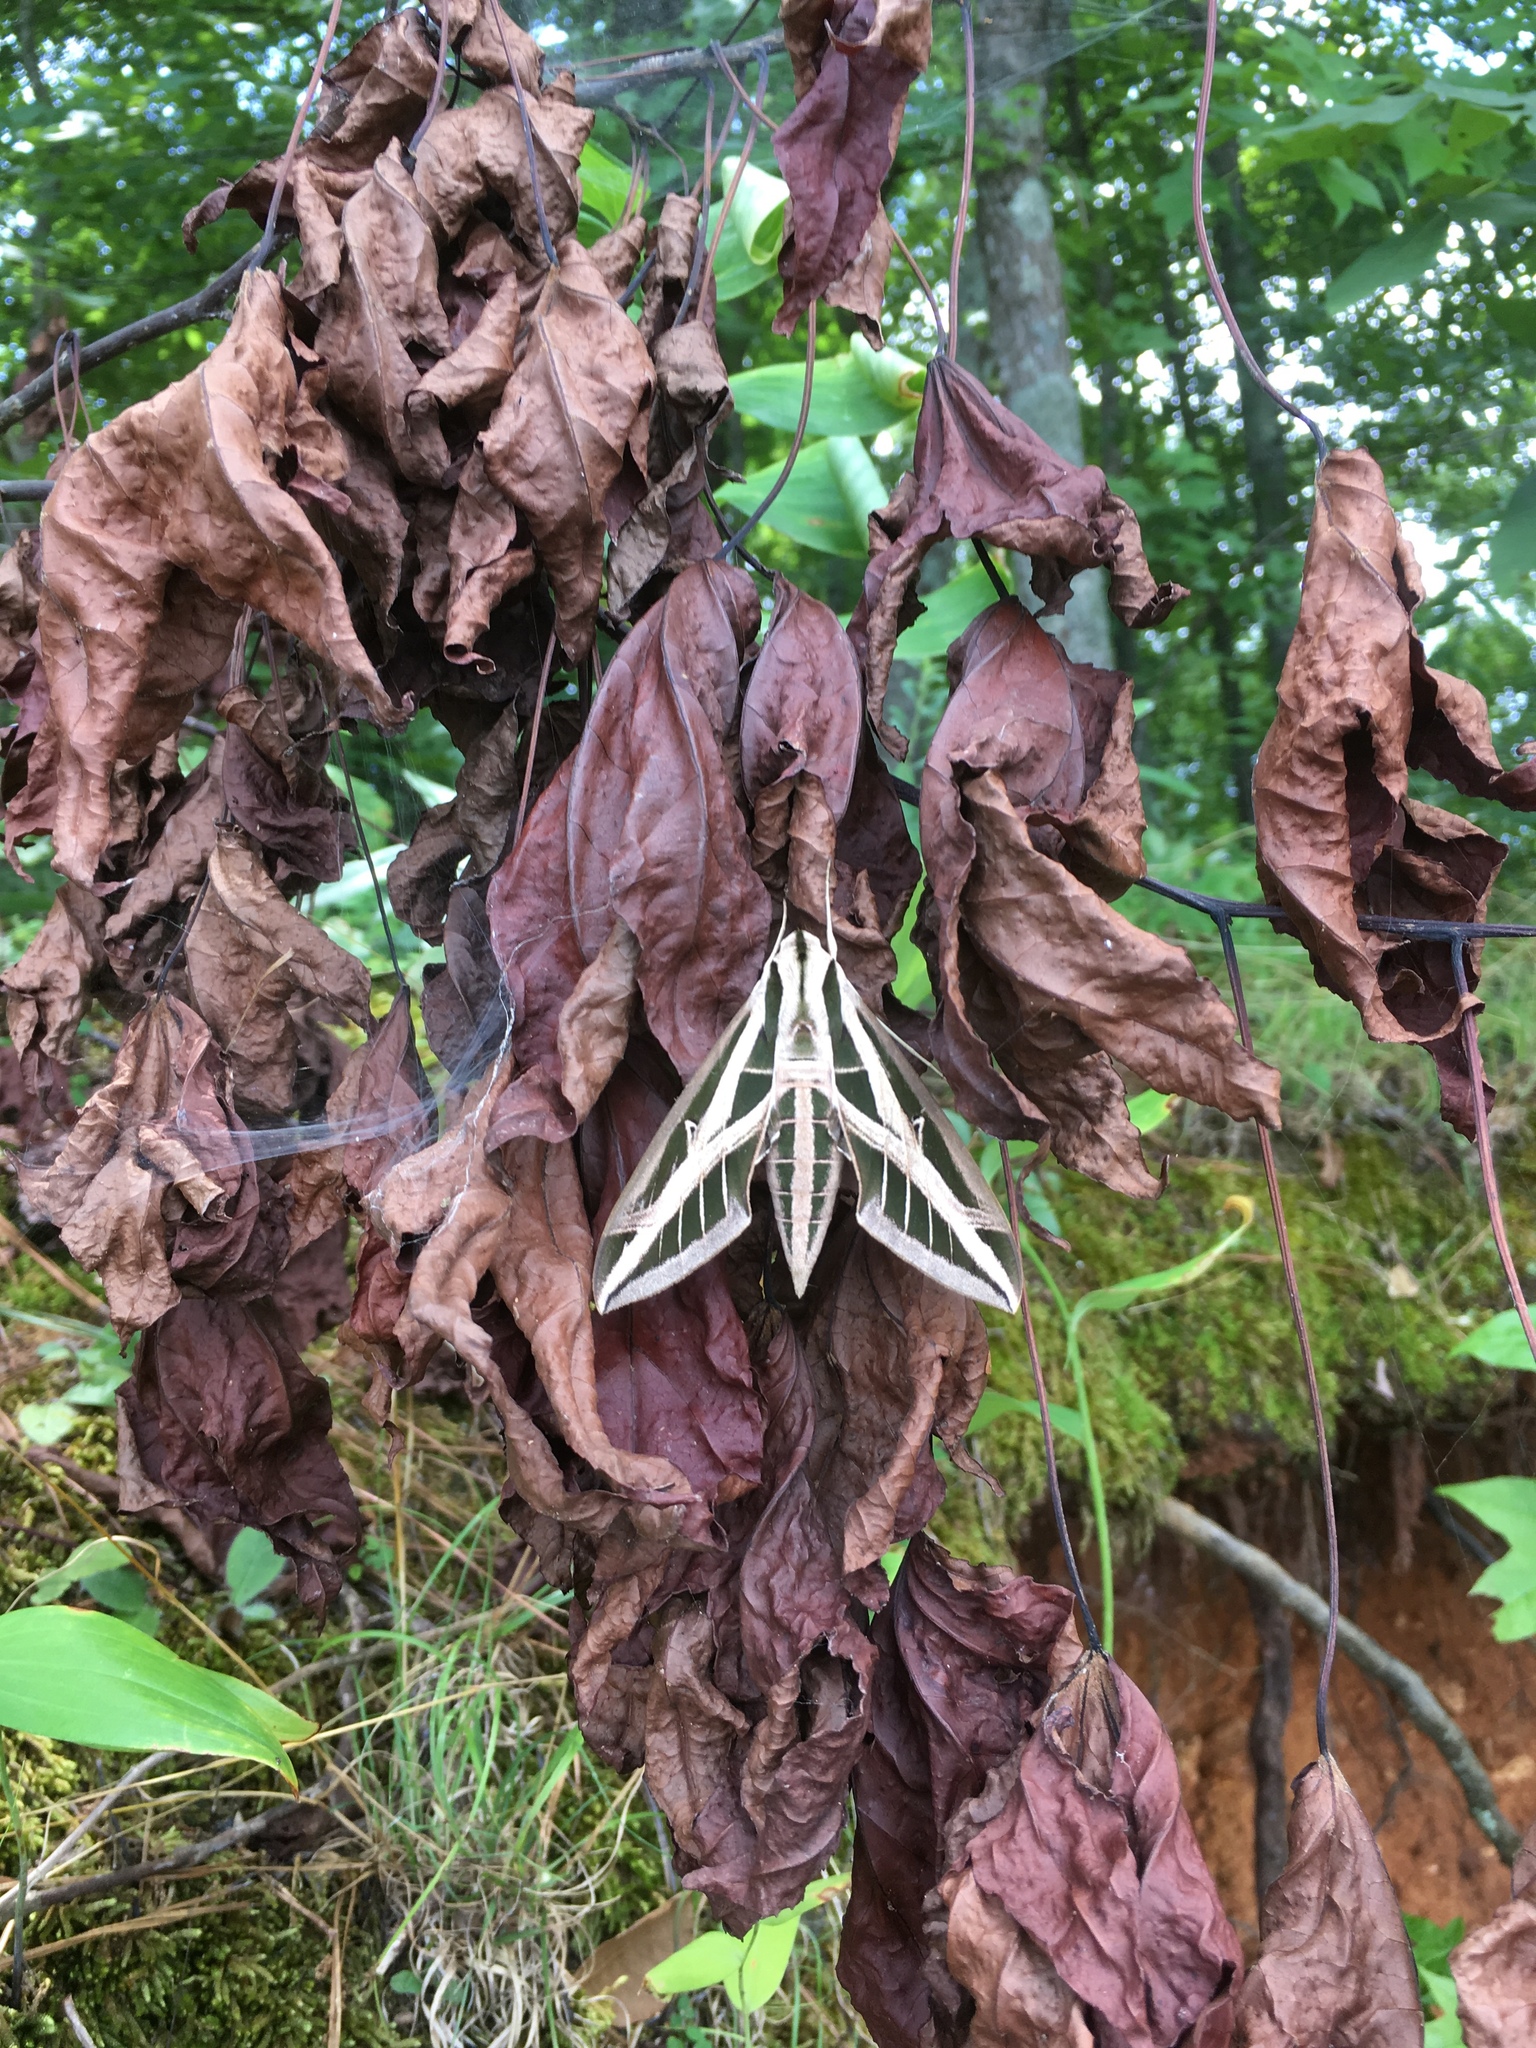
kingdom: Animalia
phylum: Arthropoda
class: Insecta
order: Lepidoptera
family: Sphingidae
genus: Eumorpha
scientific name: Eumorpha fasciatus
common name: Banded sphinx
